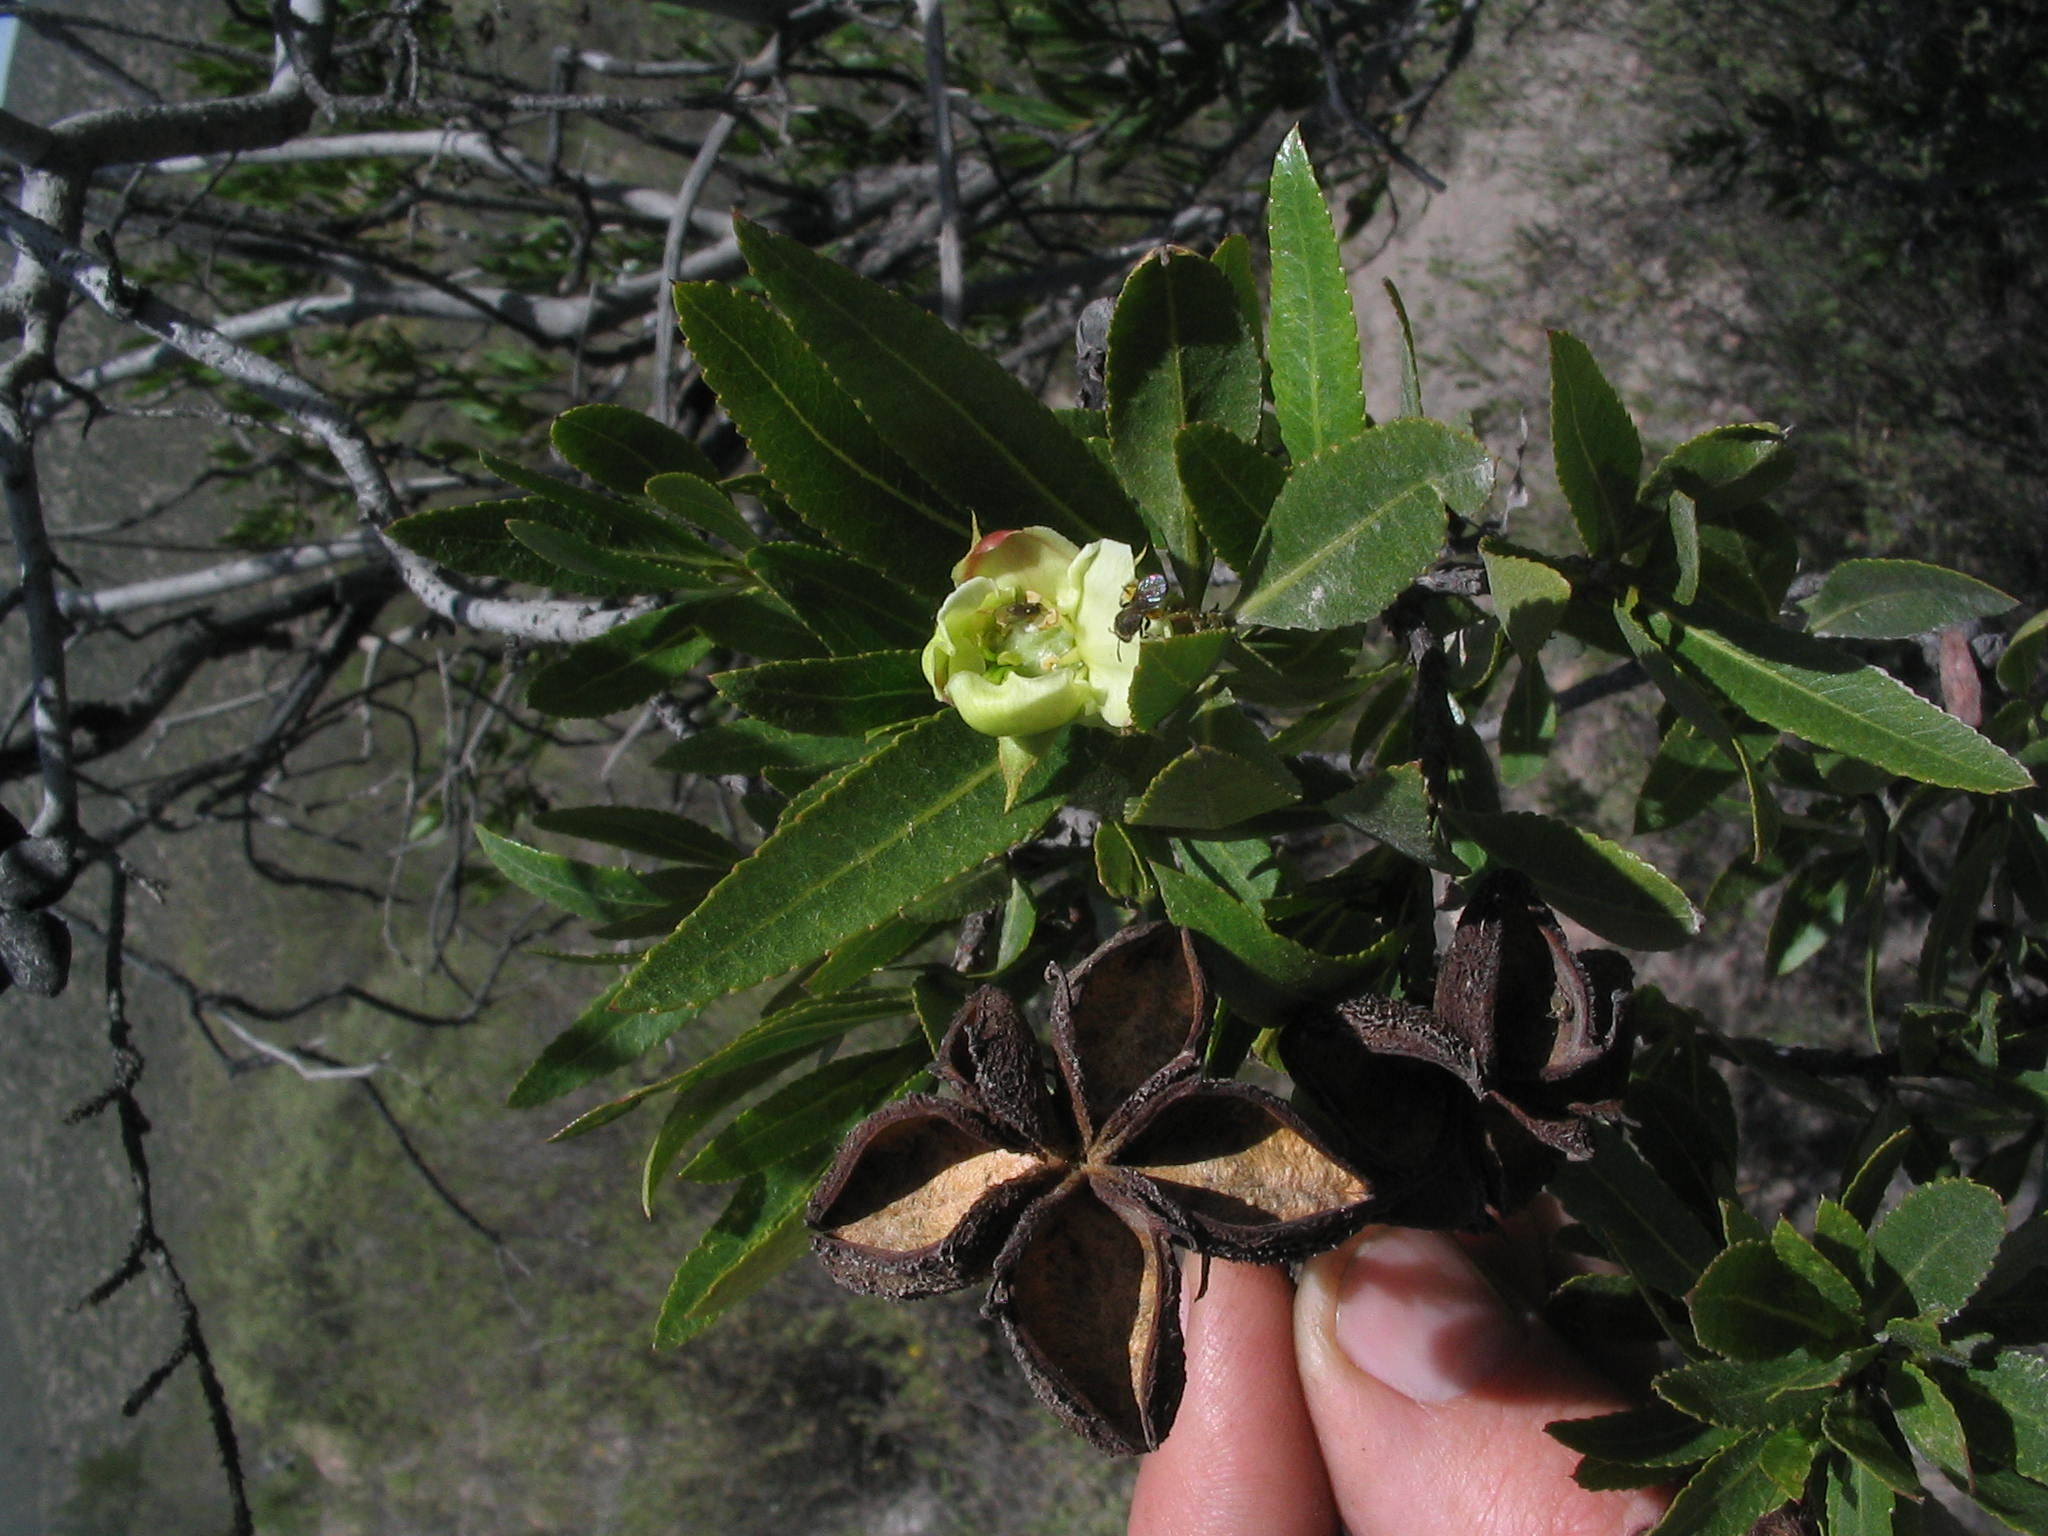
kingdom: Plantae
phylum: Tracheophyta
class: Magnoliopsida
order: Rosales
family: Rosaceae
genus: Kageneckia
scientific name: Kageneckia lanceolata
